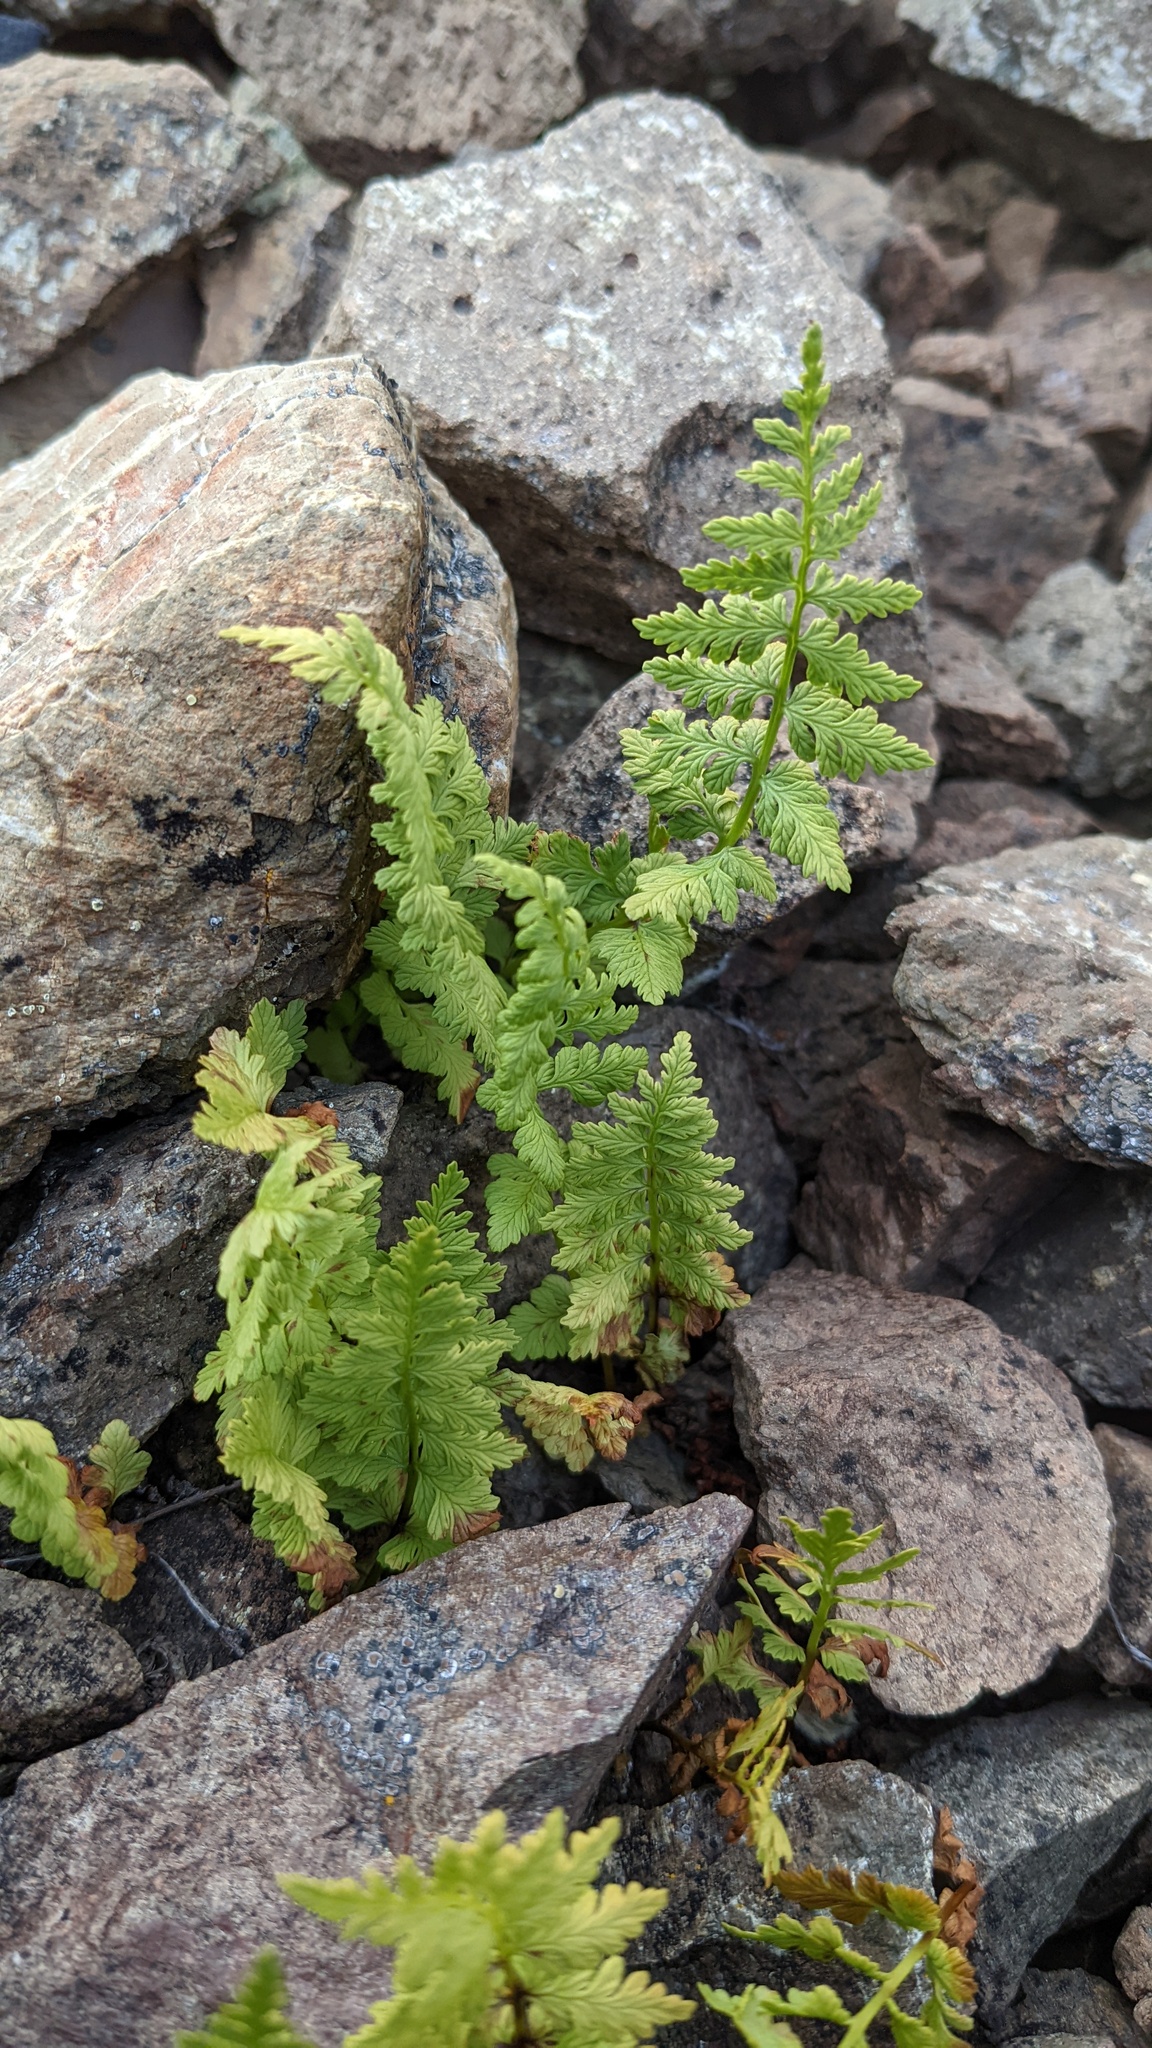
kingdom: Plantae
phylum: Tracheophyta
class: Polypodiopsida
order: Polypodiales
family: Cystopteridaceae
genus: Cystopteris
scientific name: Cystopteris fragilis
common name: Brittle bladder fern
